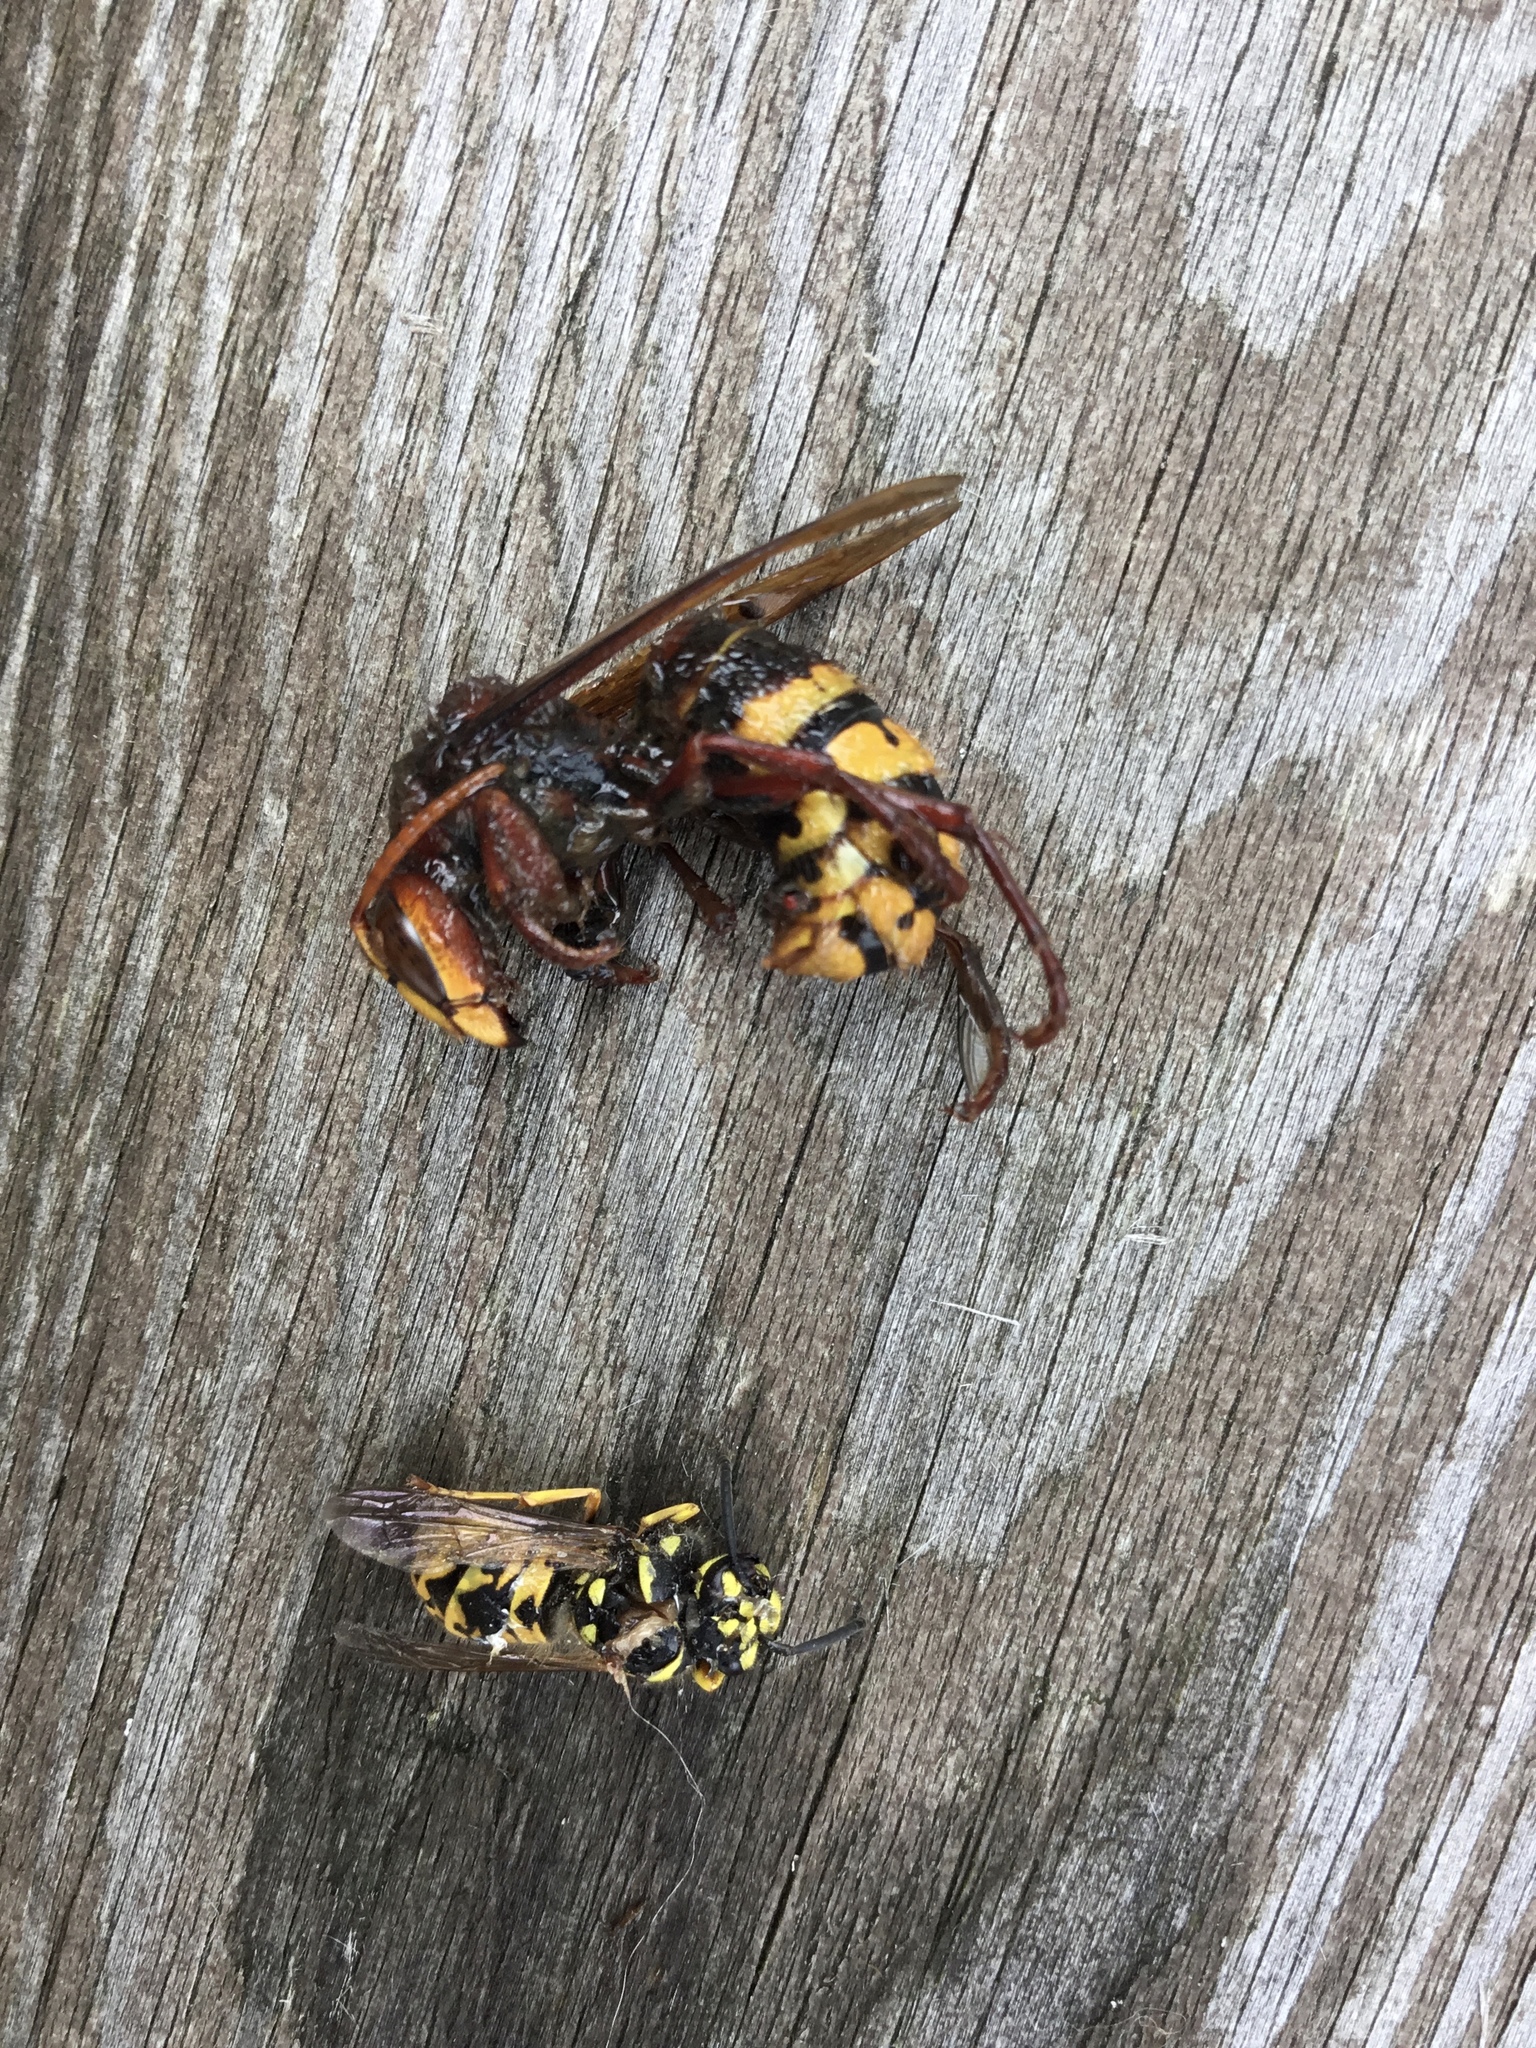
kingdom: Animalia
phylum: Arthropoda
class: Insecta
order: Hymenoptera
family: Vespidae
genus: Vespa
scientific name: Vespa crabro
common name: Hornet
